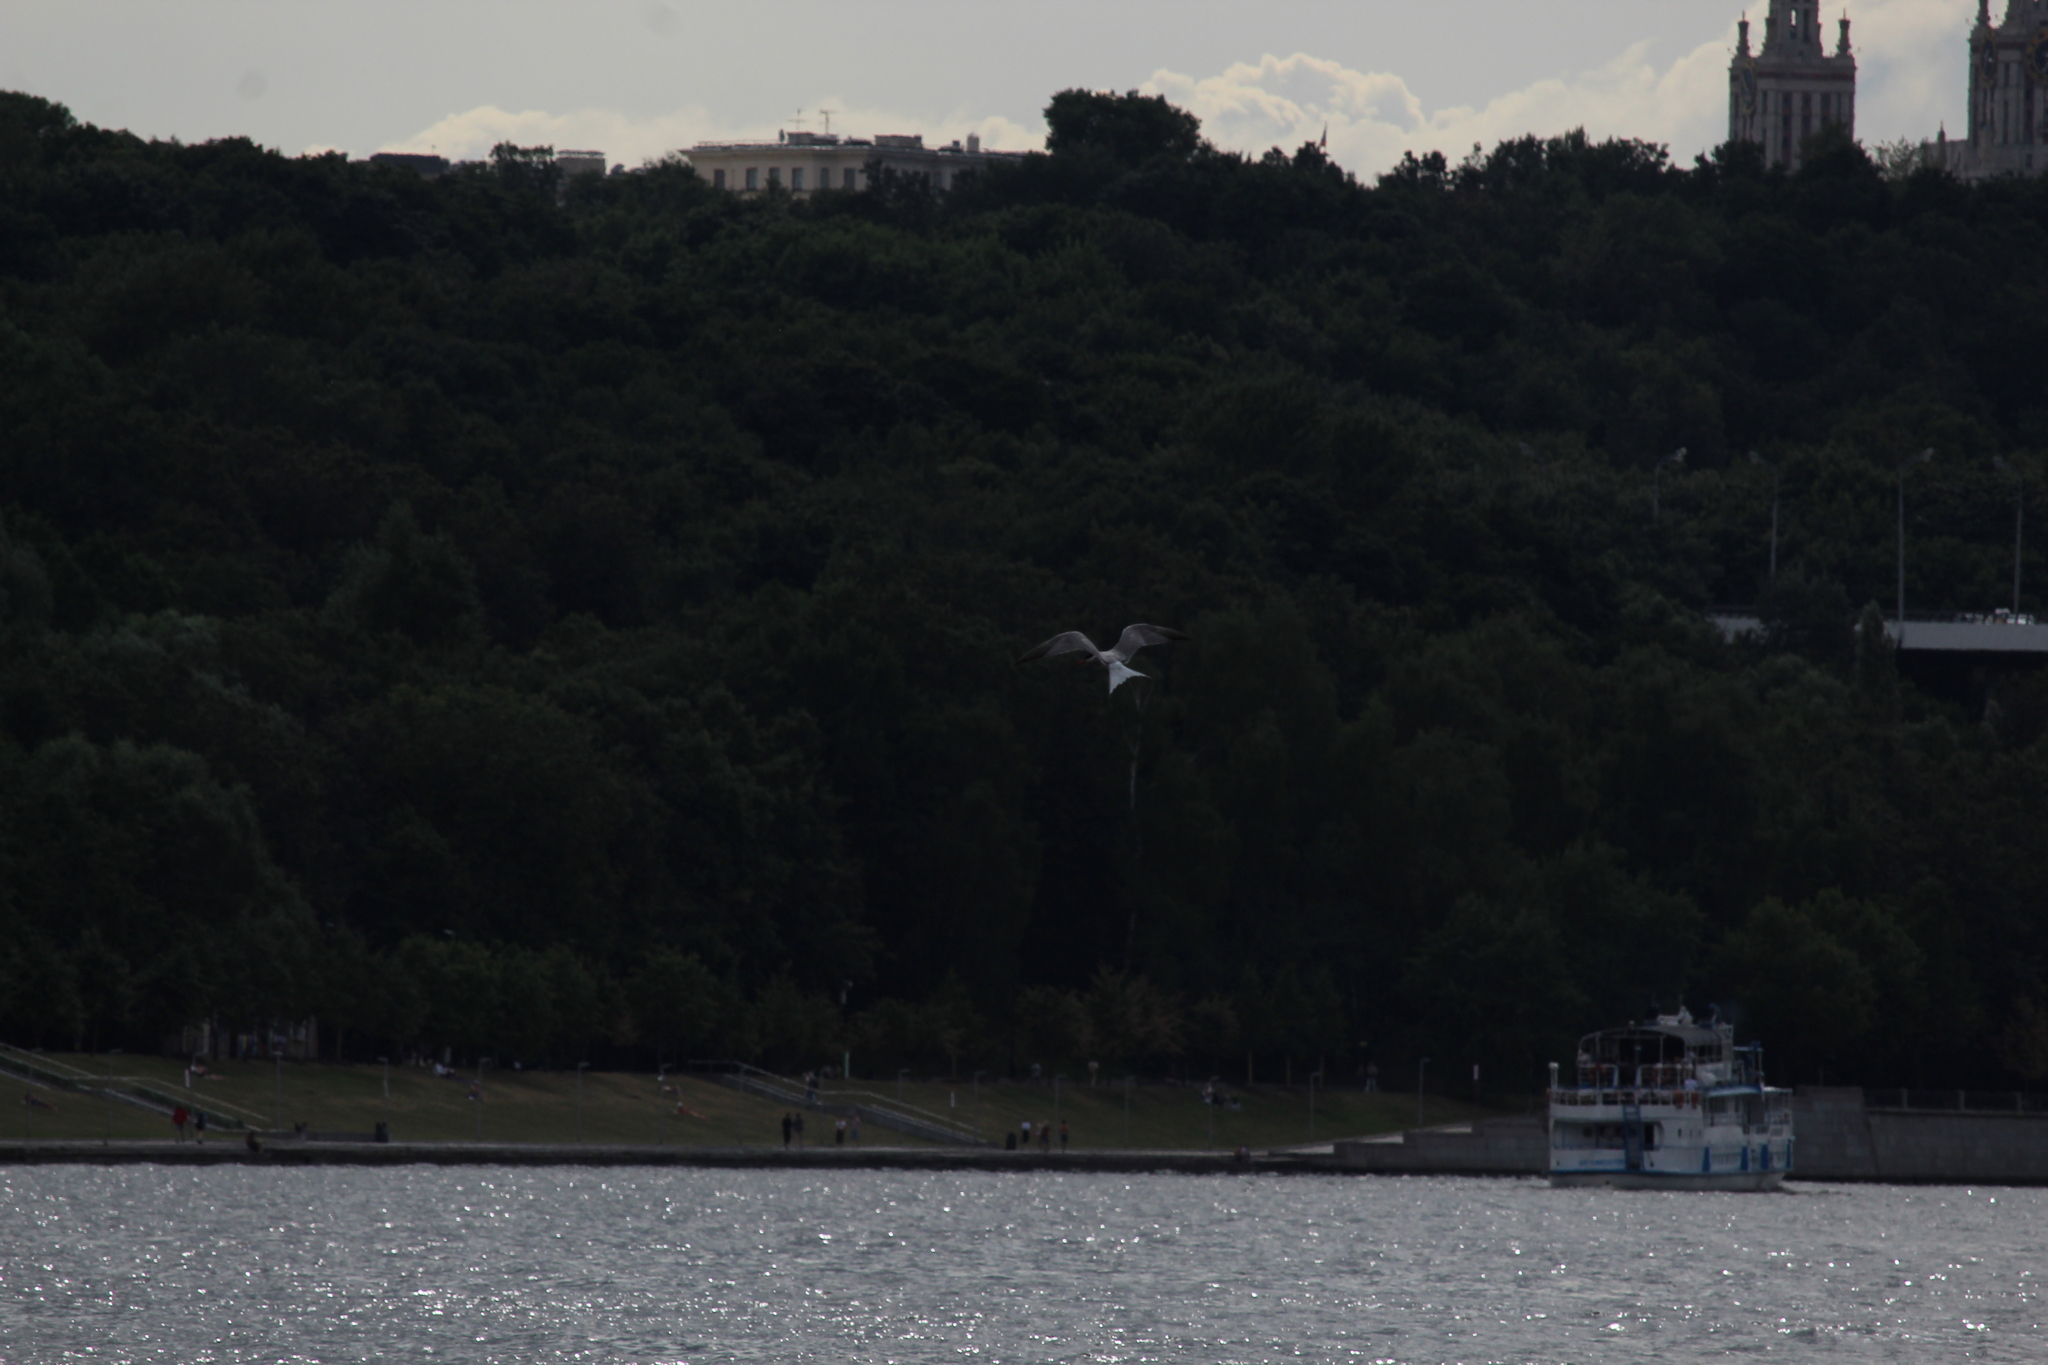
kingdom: Animalia
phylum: Chordata
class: Aves
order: Charadriiformes
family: Laridae
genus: Sterna
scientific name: Sterna hirundo
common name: Common tern
